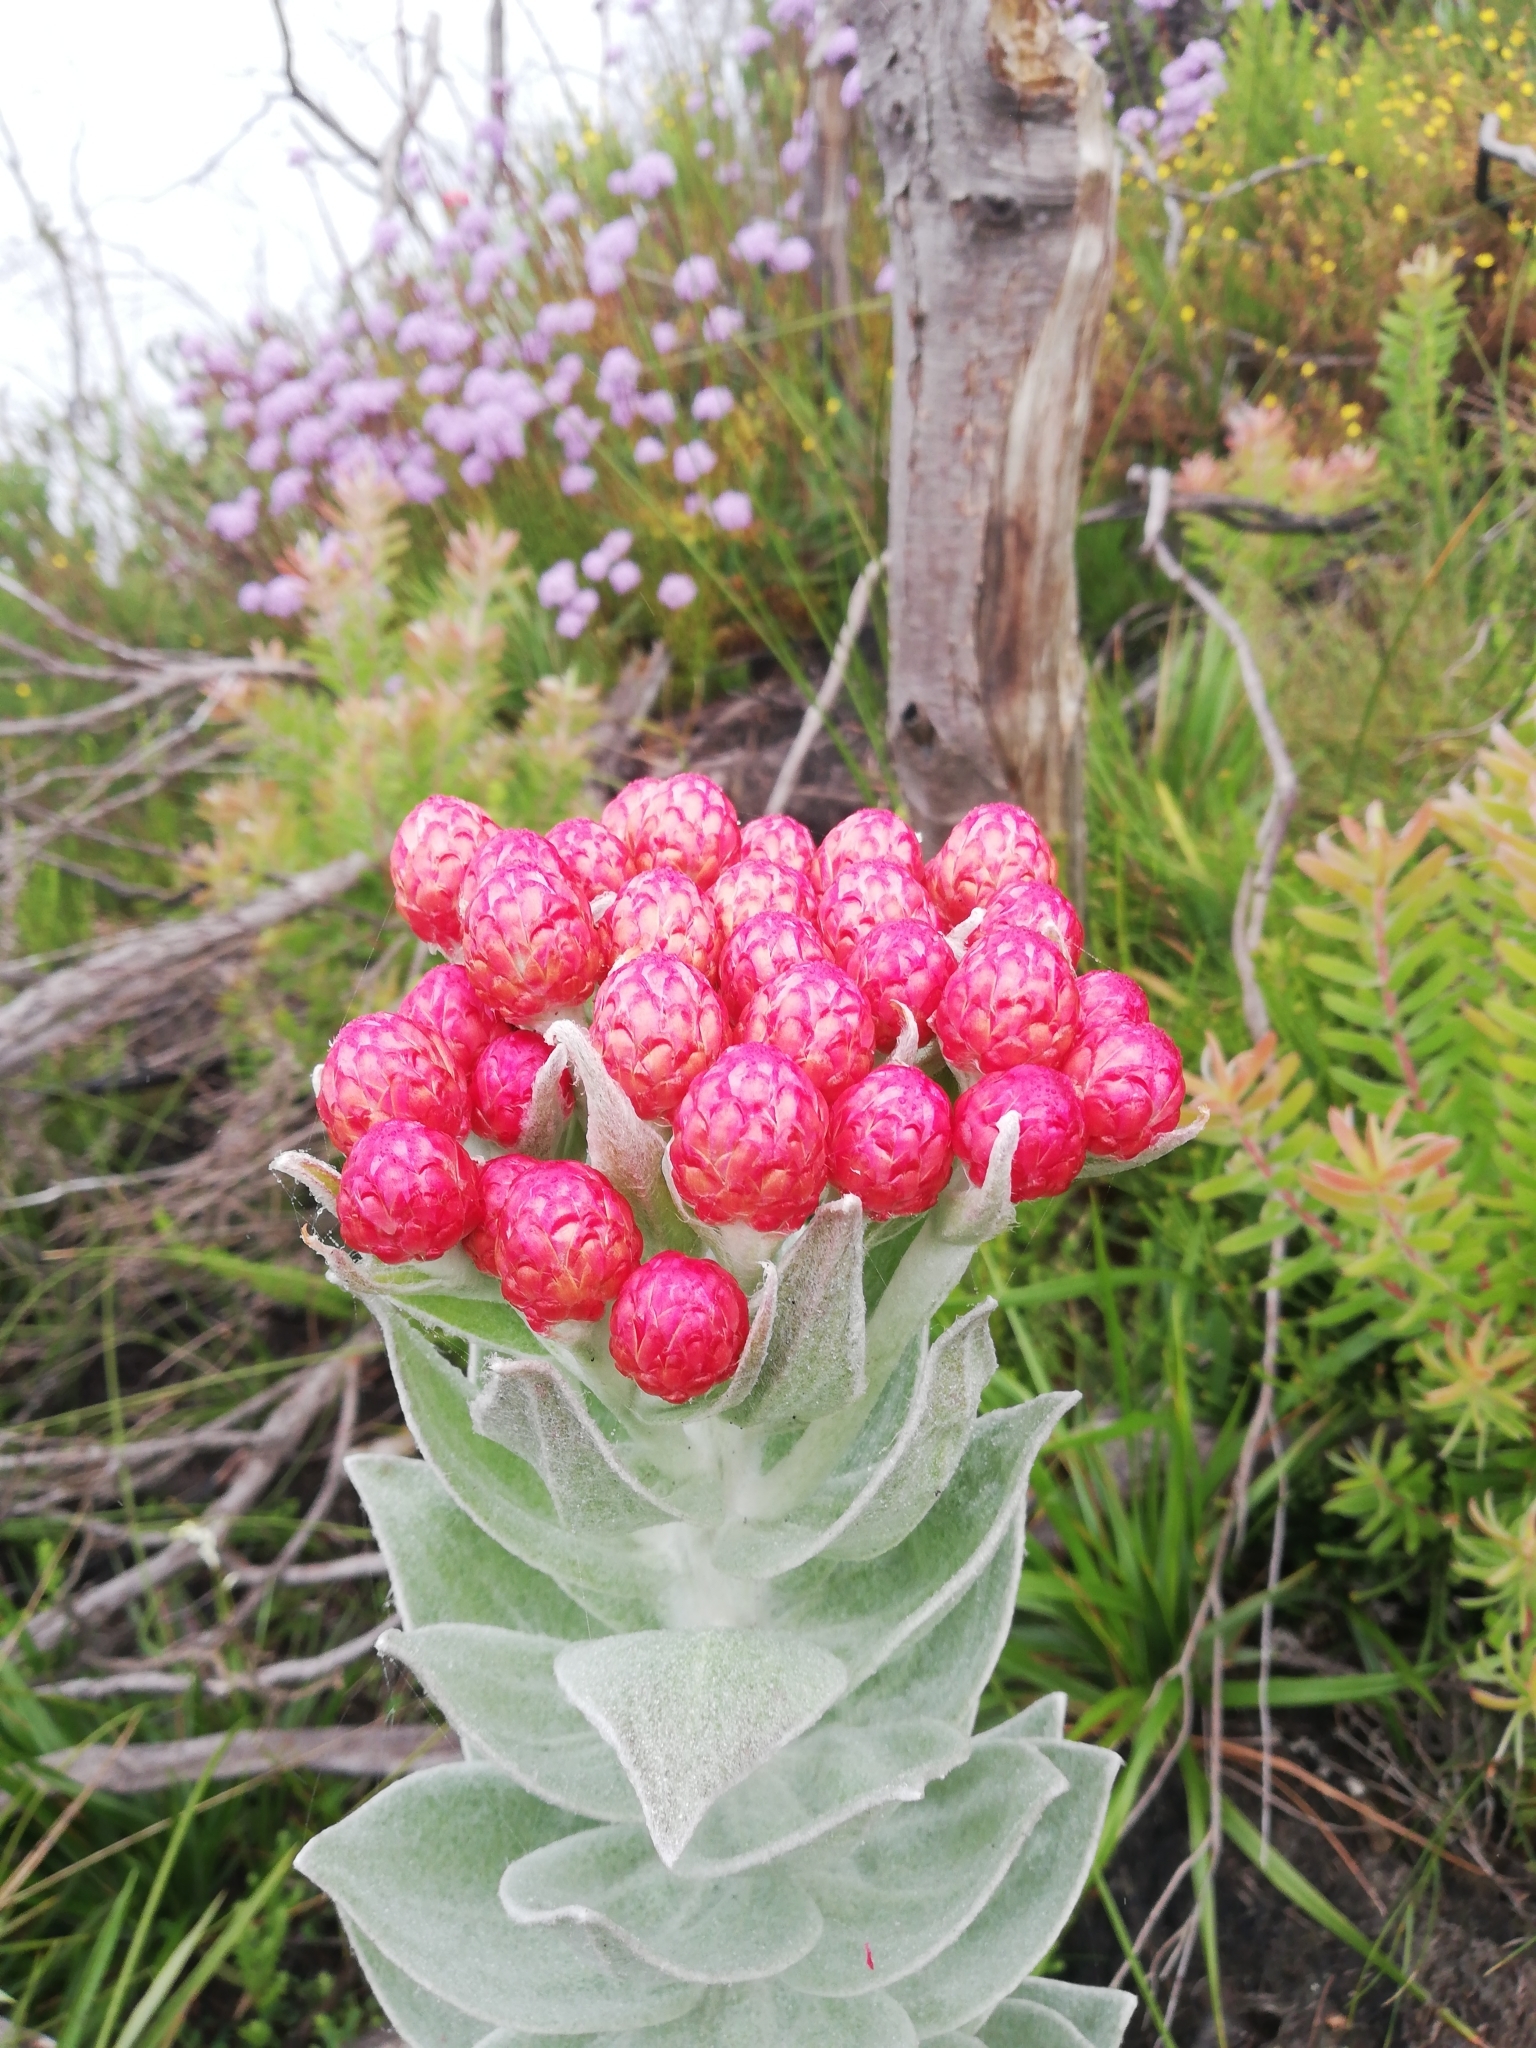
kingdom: Plantae
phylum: Tracheophyta
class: Magnoliopsida
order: Asterales
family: Asteraceae
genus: Syncarpha
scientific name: Syncarpha eximia
